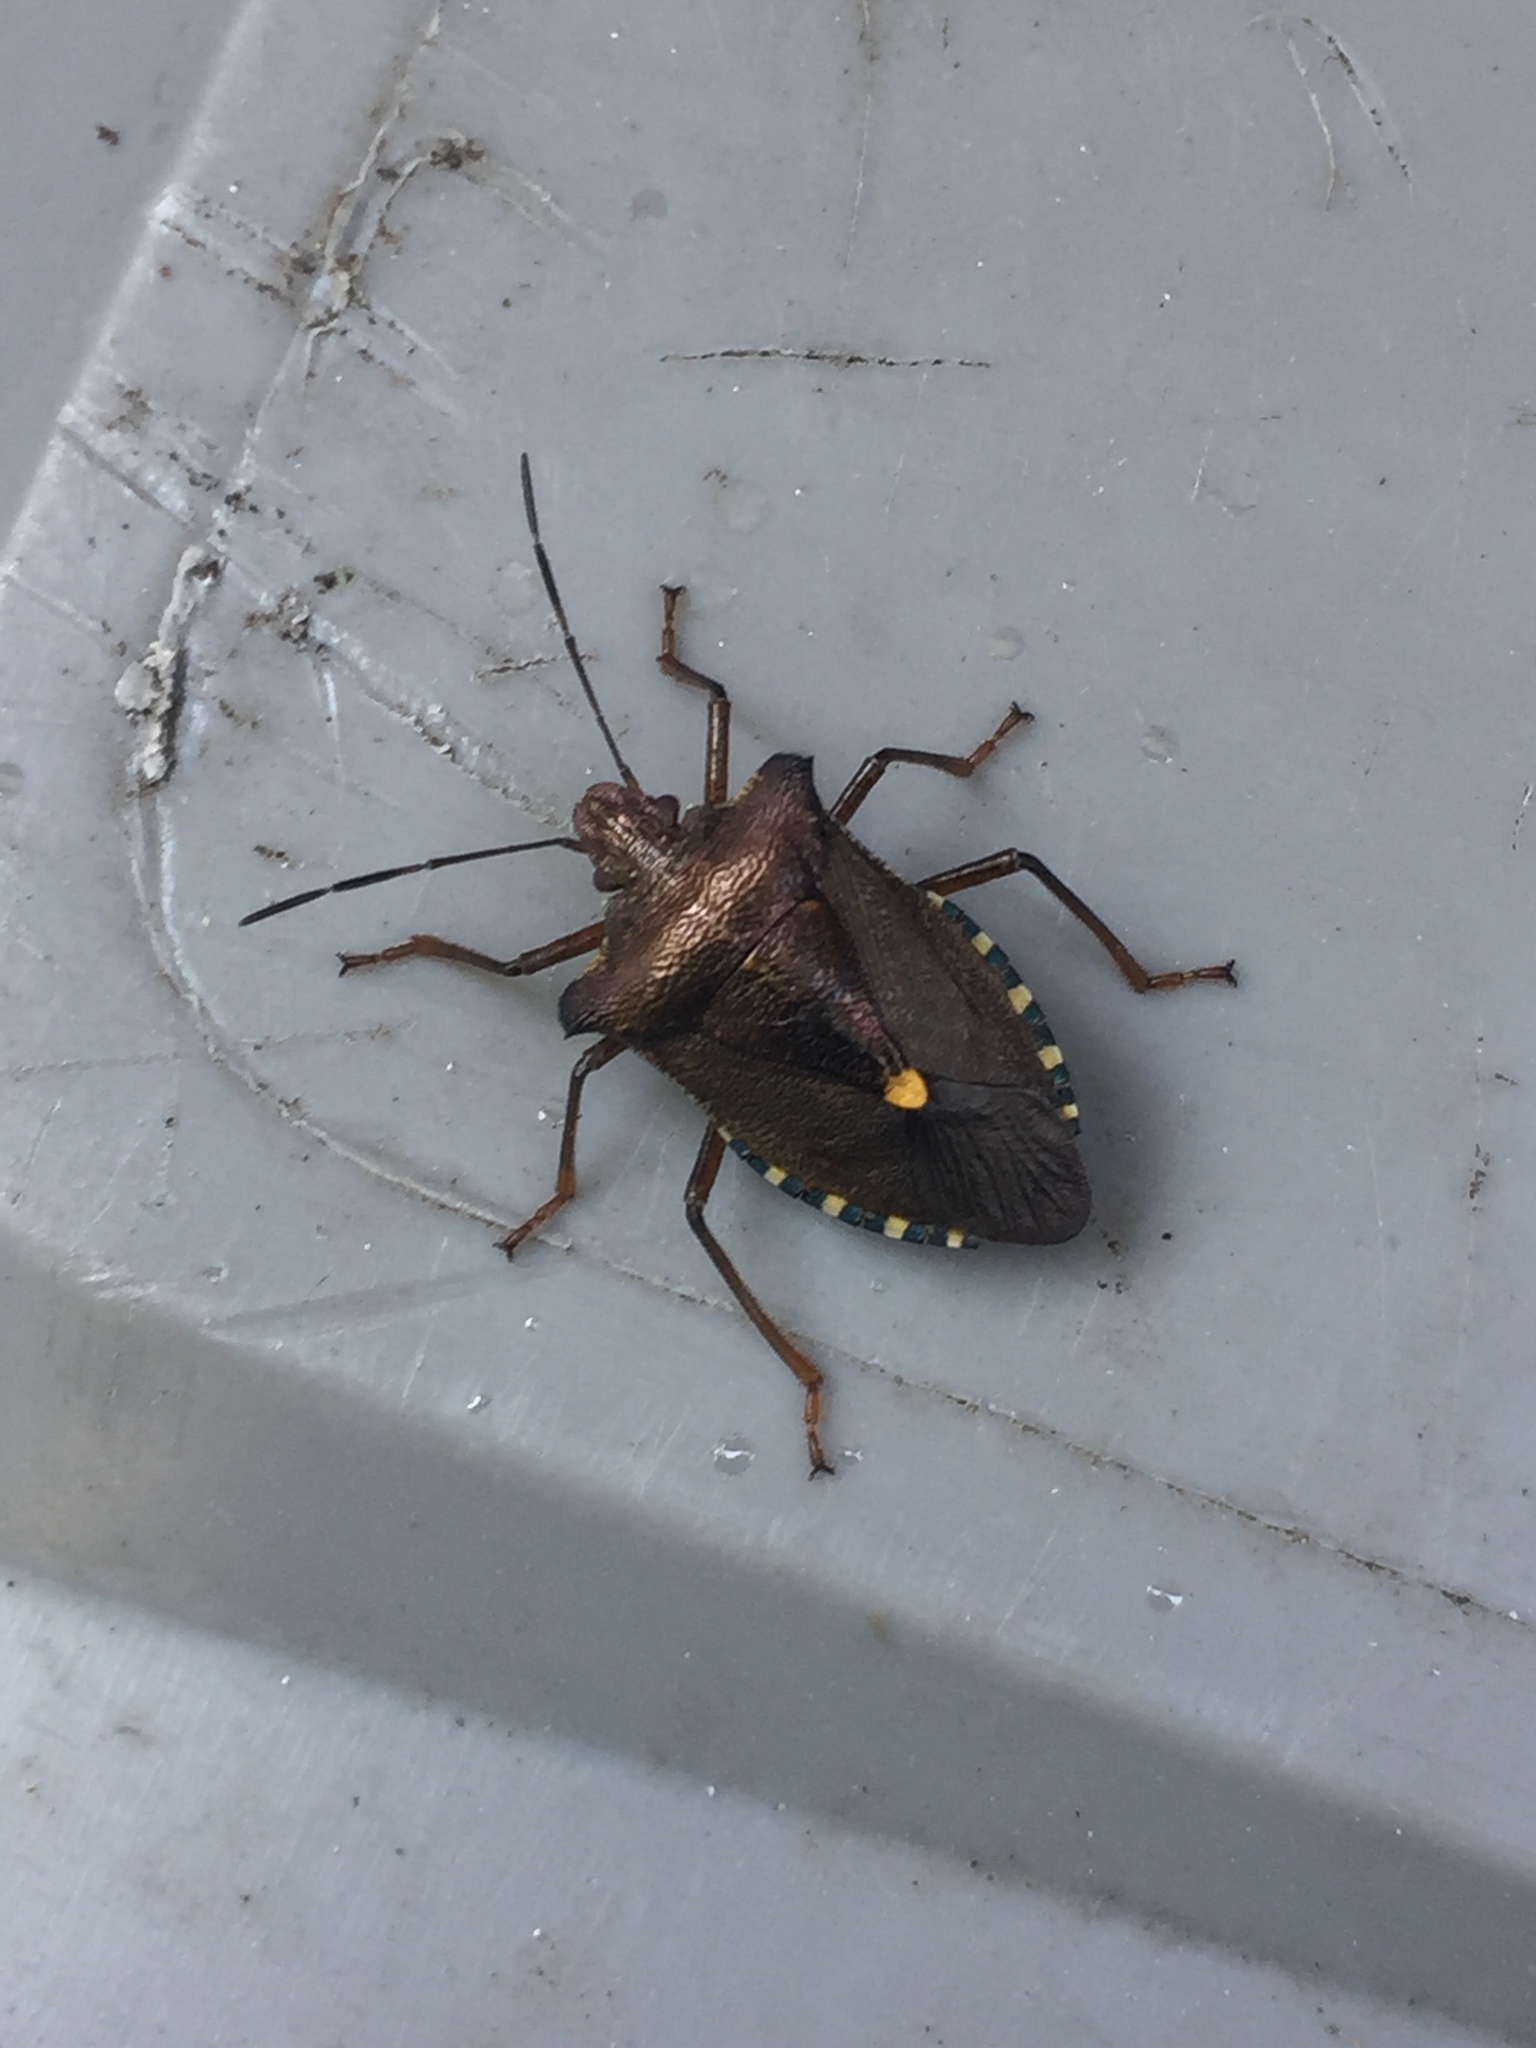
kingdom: Animalia
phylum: Arthropoda
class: Insecta
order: Hemiptera
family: Pentatomidae
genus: Pentatoma
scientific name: Pentatoma rufipes
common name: Forest bug
